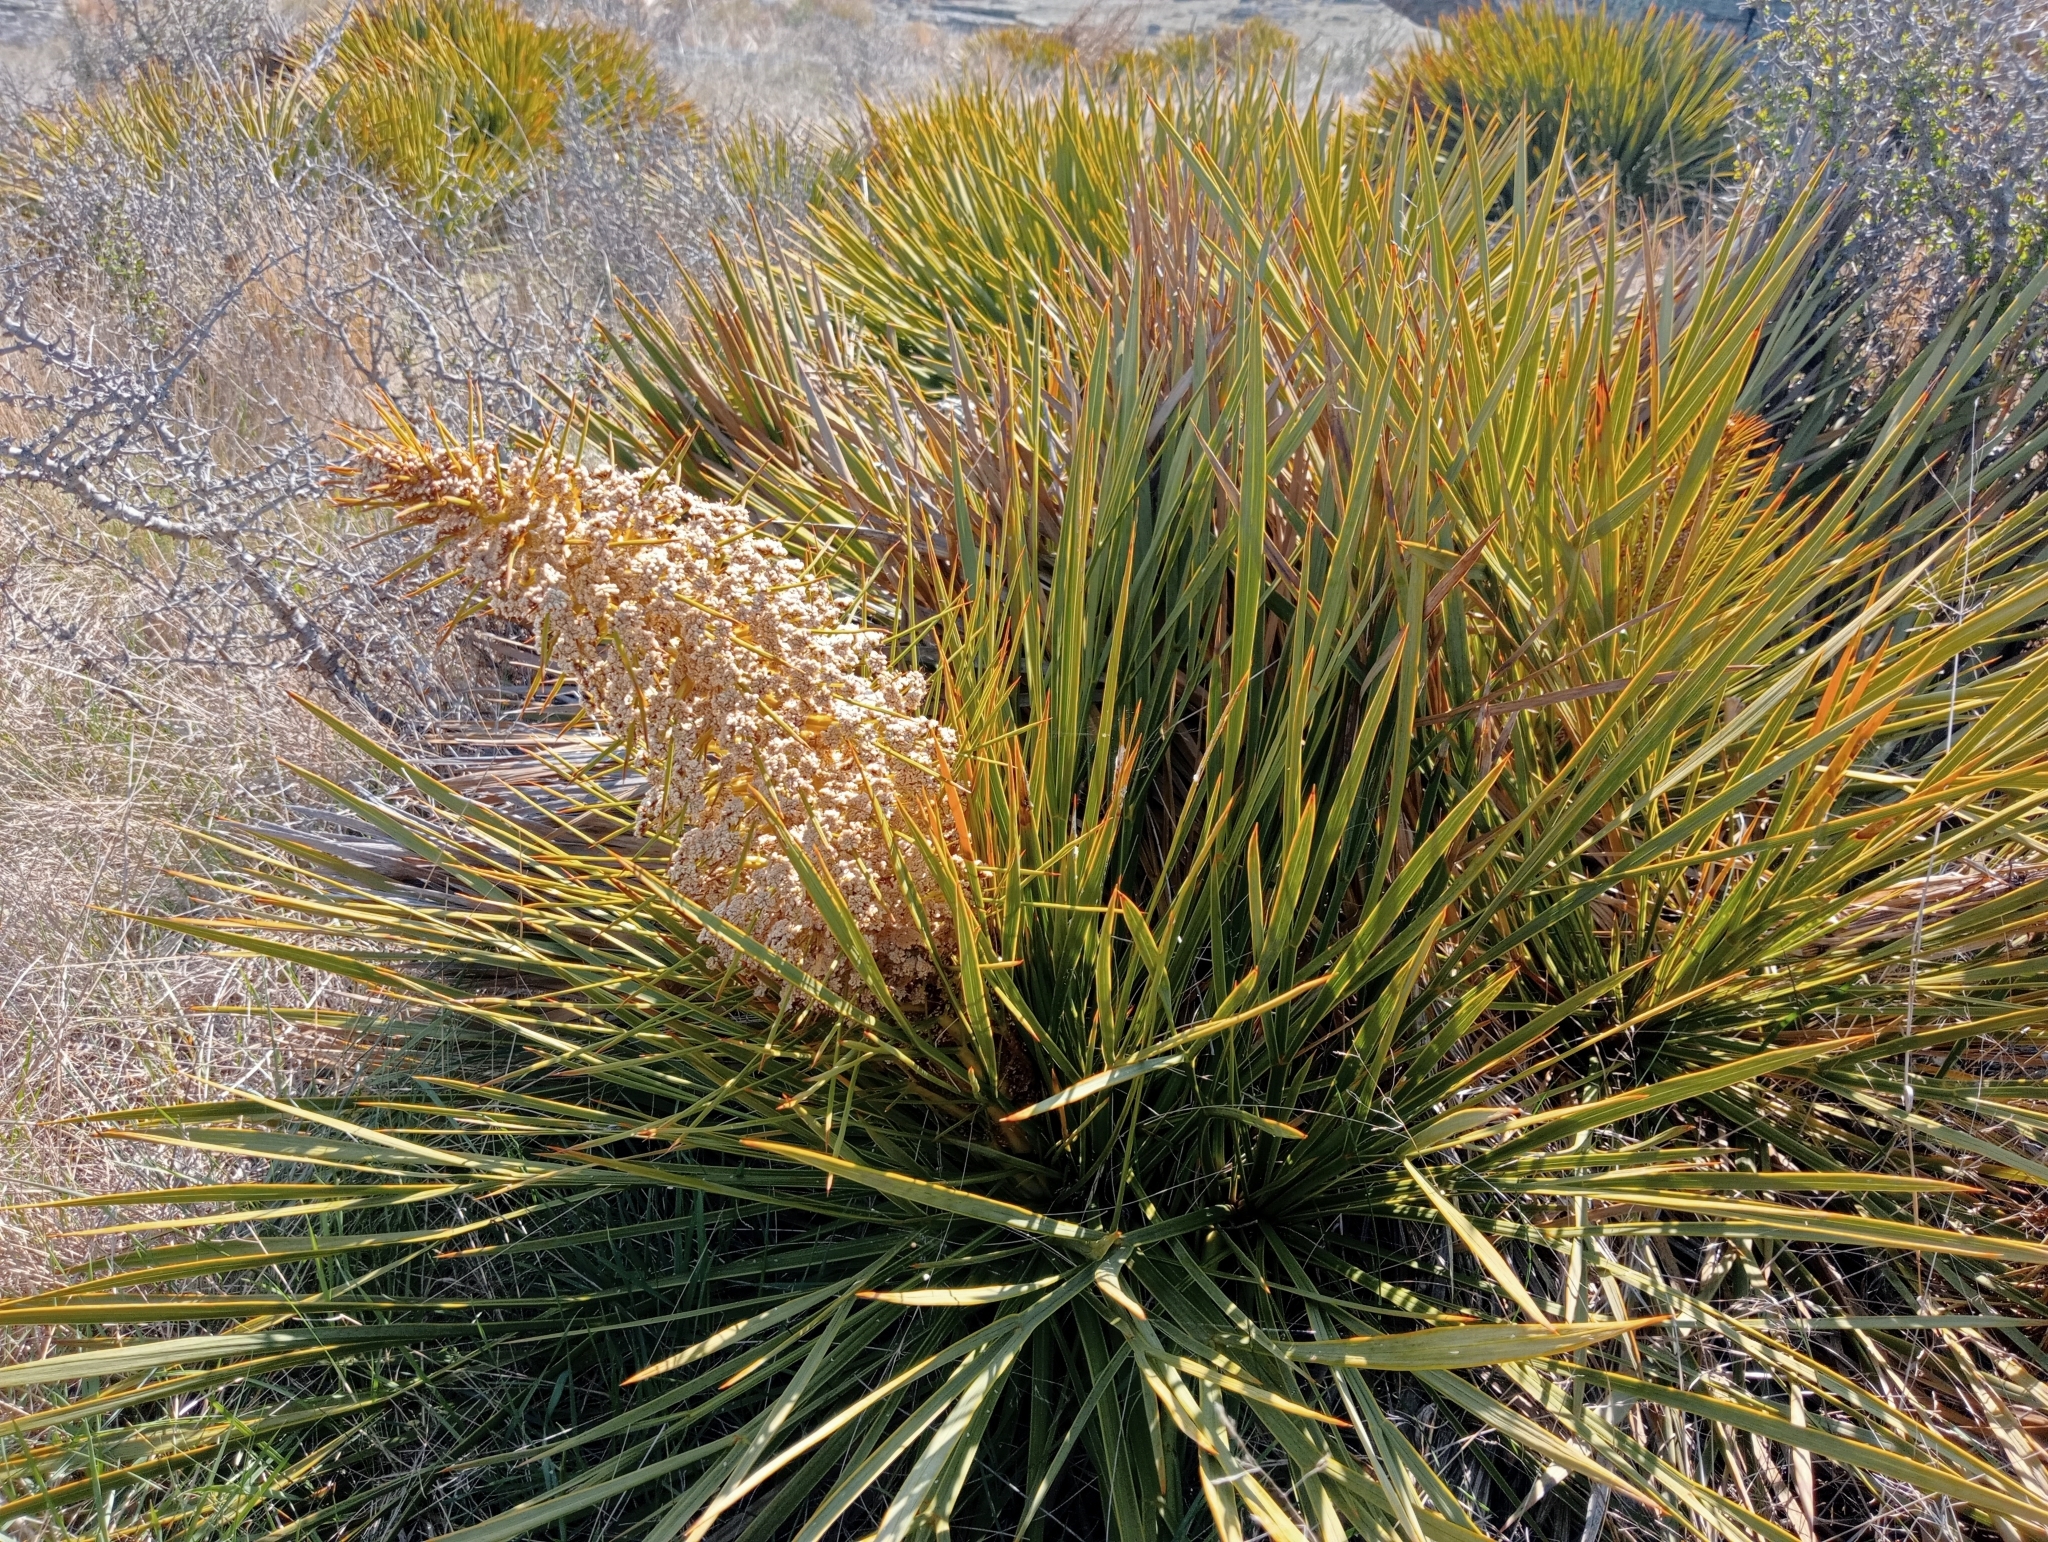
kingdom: Plantae
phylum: Tracheophyta
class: Magnoliopsida
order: Apiales
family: Apiaceae
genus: Aciphylla
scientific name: Aciphylla aurea
